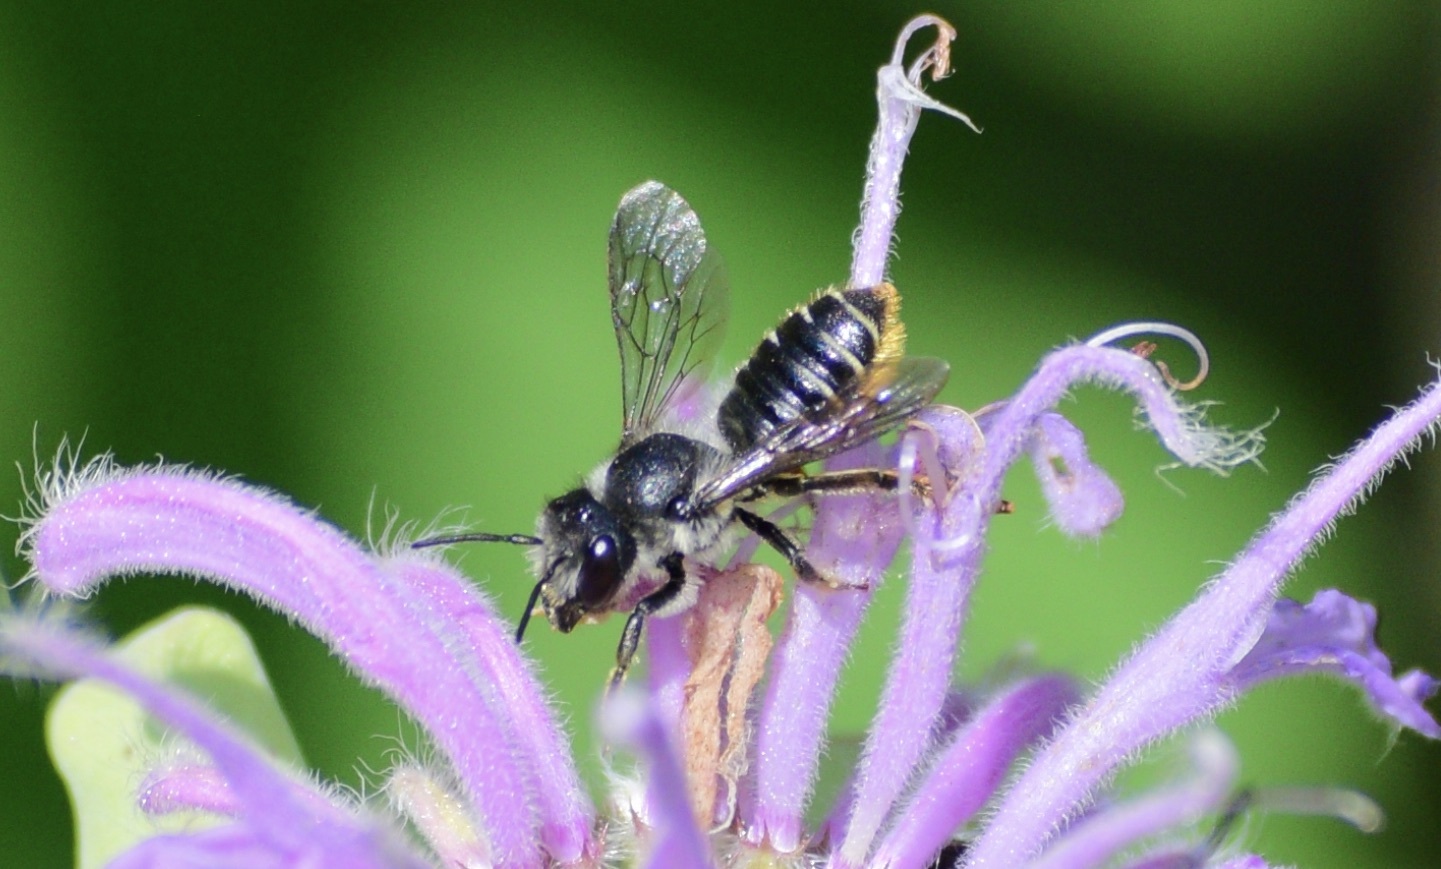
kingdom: Animalia
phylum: Arthropoda
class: Insecta
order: Hymenoptera
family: Megachilidae
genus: Megachile
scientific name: Megachile relativa
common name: Golden-tailed leafcutter
